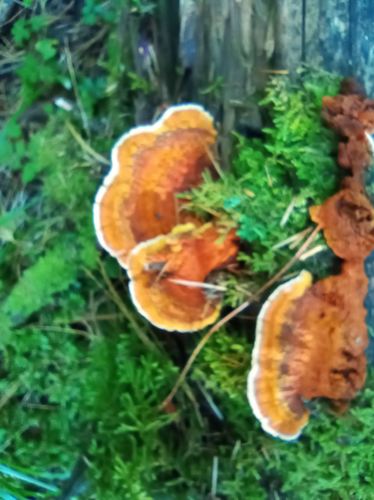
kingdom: Fungi
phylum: Basidiomycota
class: Agaricomycetes
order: Polyporales
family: Pycnoporellaceae
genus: Pycnoporellus
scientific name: Pycnoporellus fulgens
